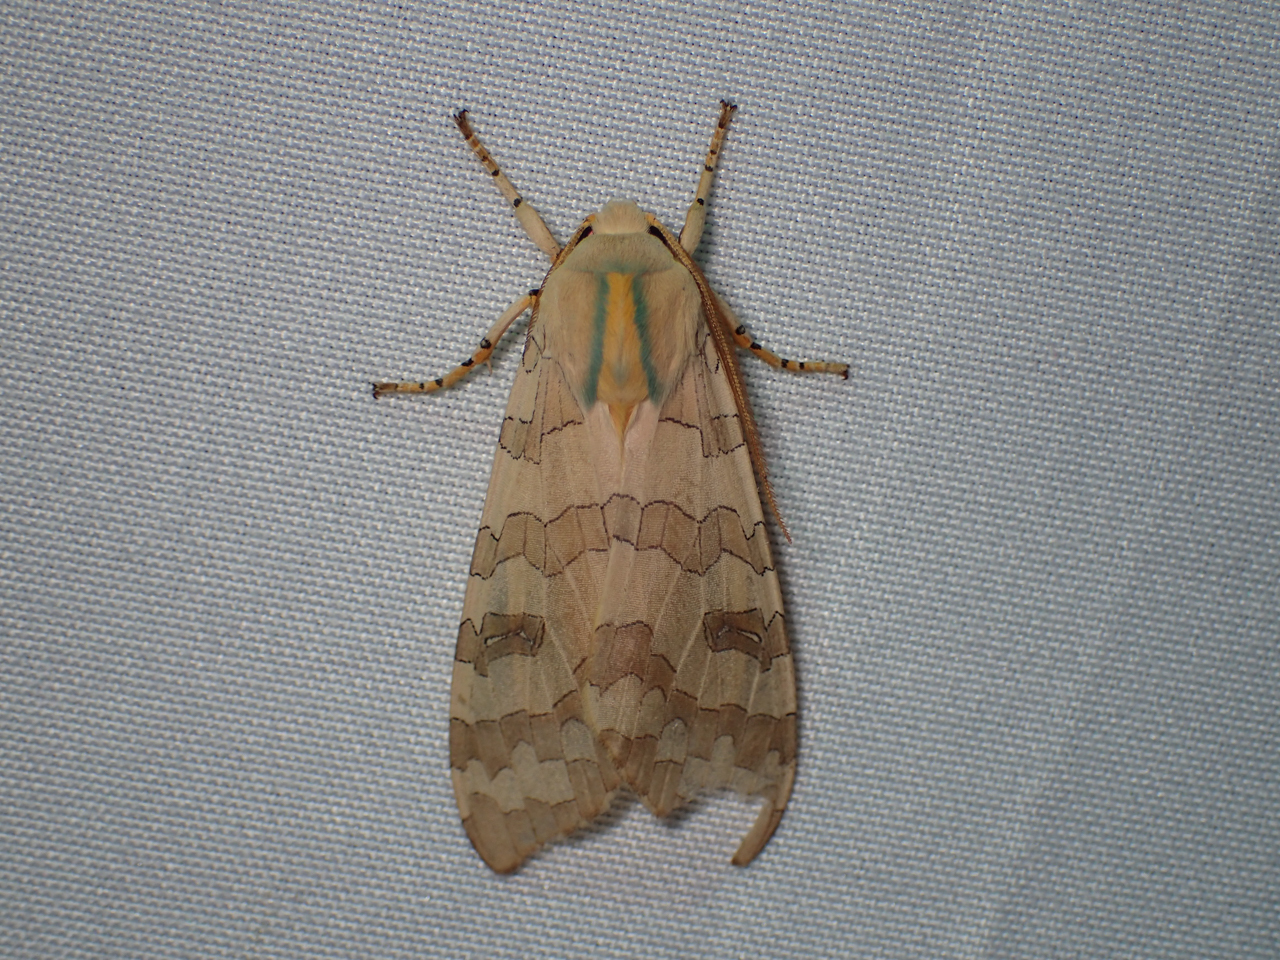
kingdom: Animalia
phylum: Arthropoda
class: Insecta
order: Lepidoptera
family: Erebidae
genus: Halysidota
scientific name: Halysidota
